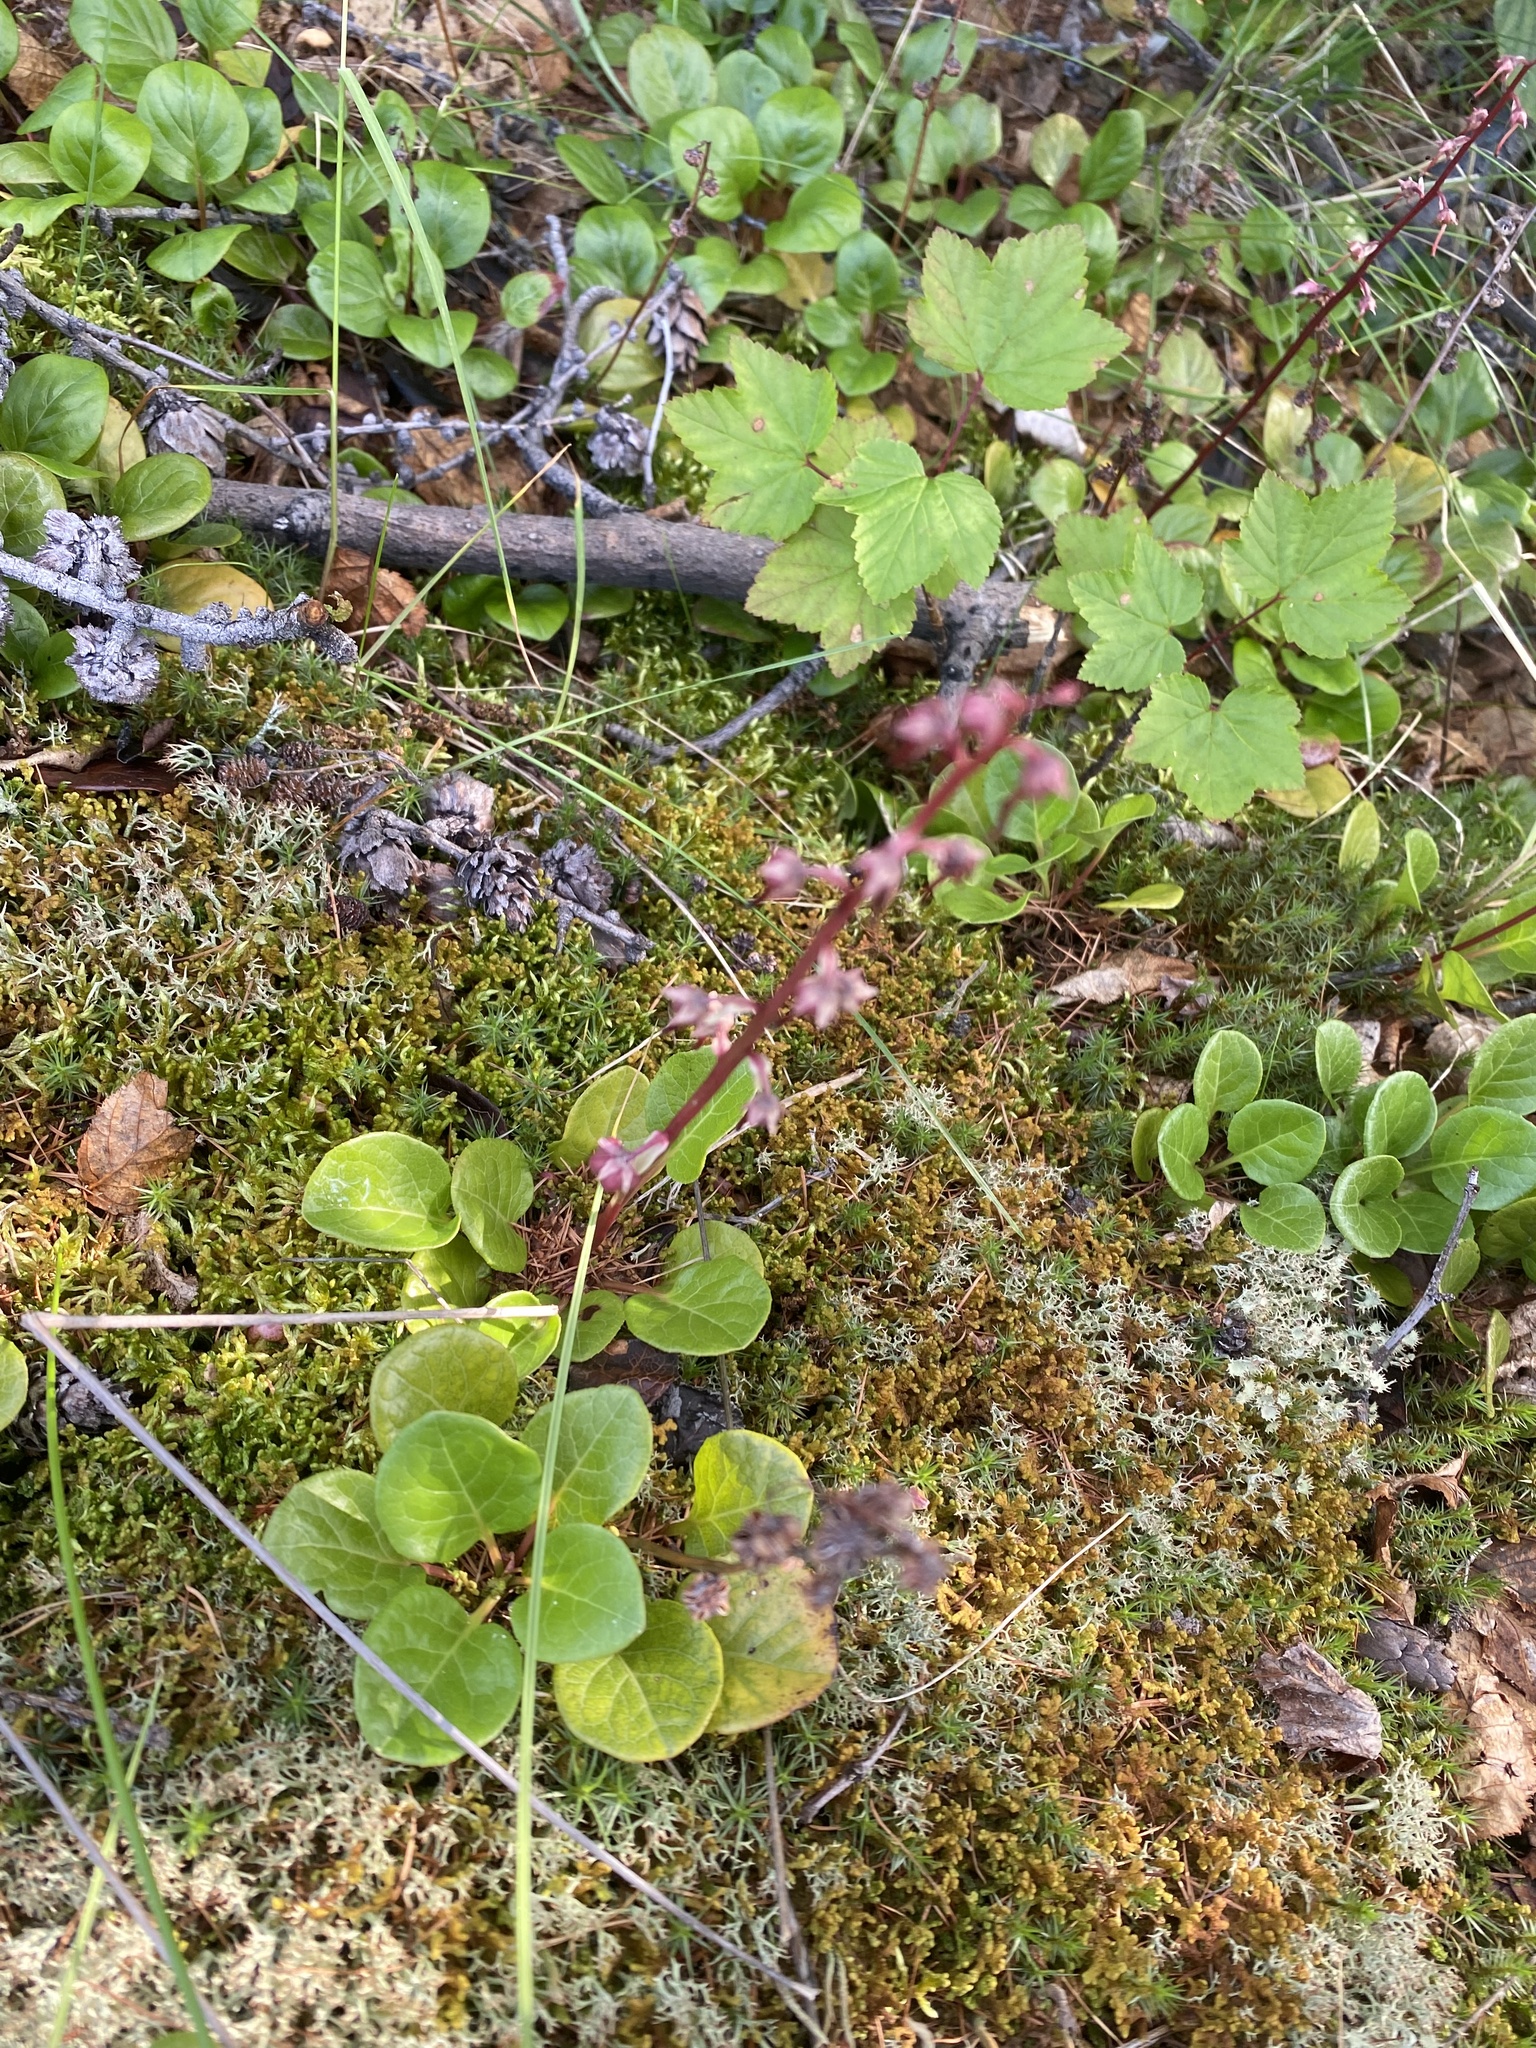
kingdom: Plantae
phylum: Tracheophyta
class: Magnoliopsida
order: Ericales
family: Ericaceae
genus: Pyrola
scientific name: Pyrola asarifolia
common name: Bog wintergreen
